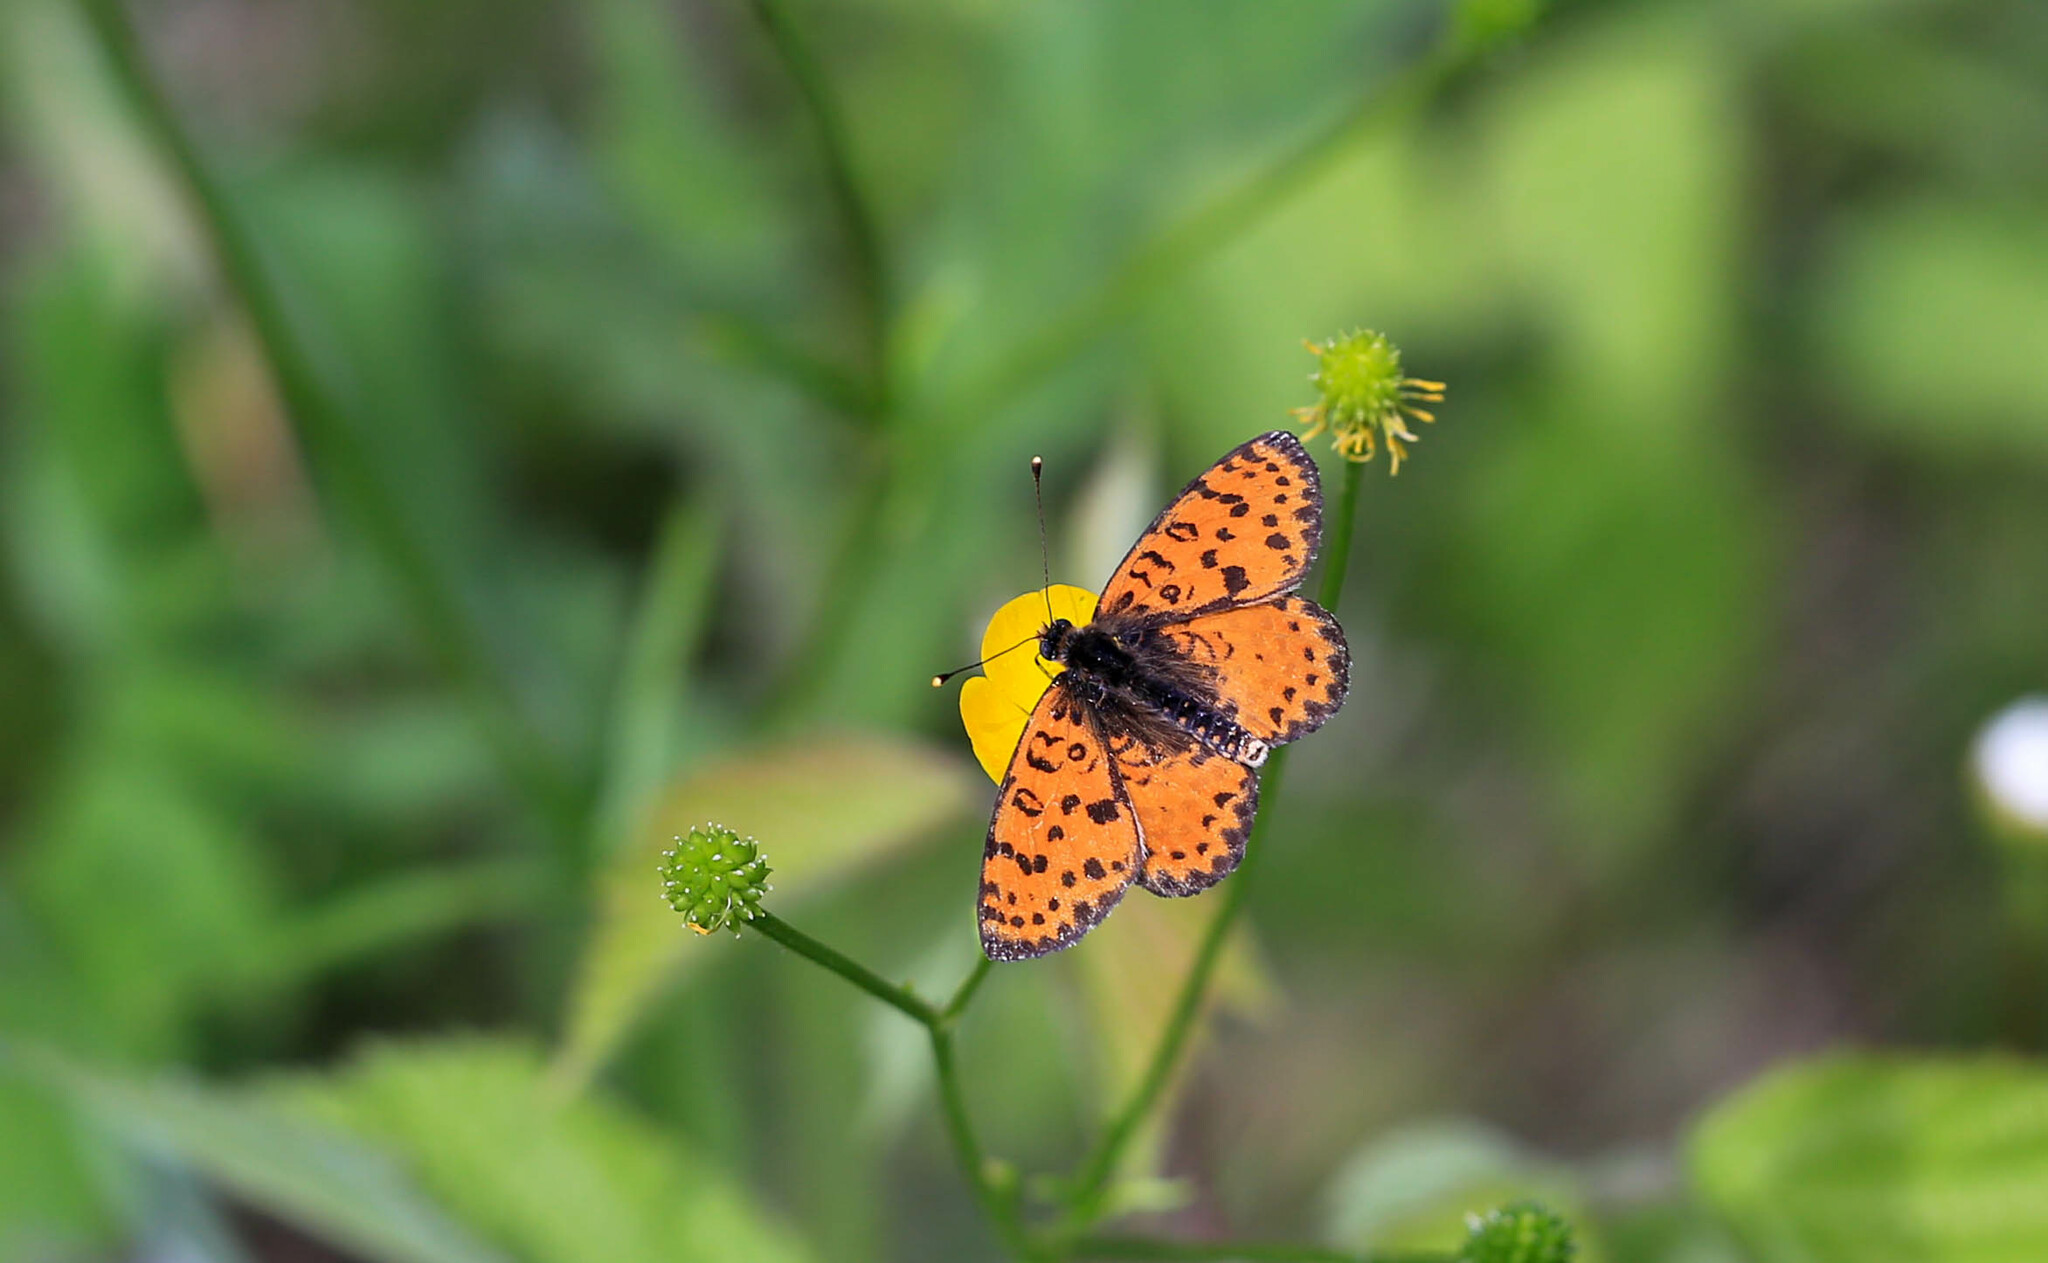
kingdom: Animalia
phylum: Arthropoda
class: Insecta
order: Lepidoptera
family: Nymphalidae
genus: Melitaea
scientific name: Melitaea didyma
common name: Spotted fritillary
